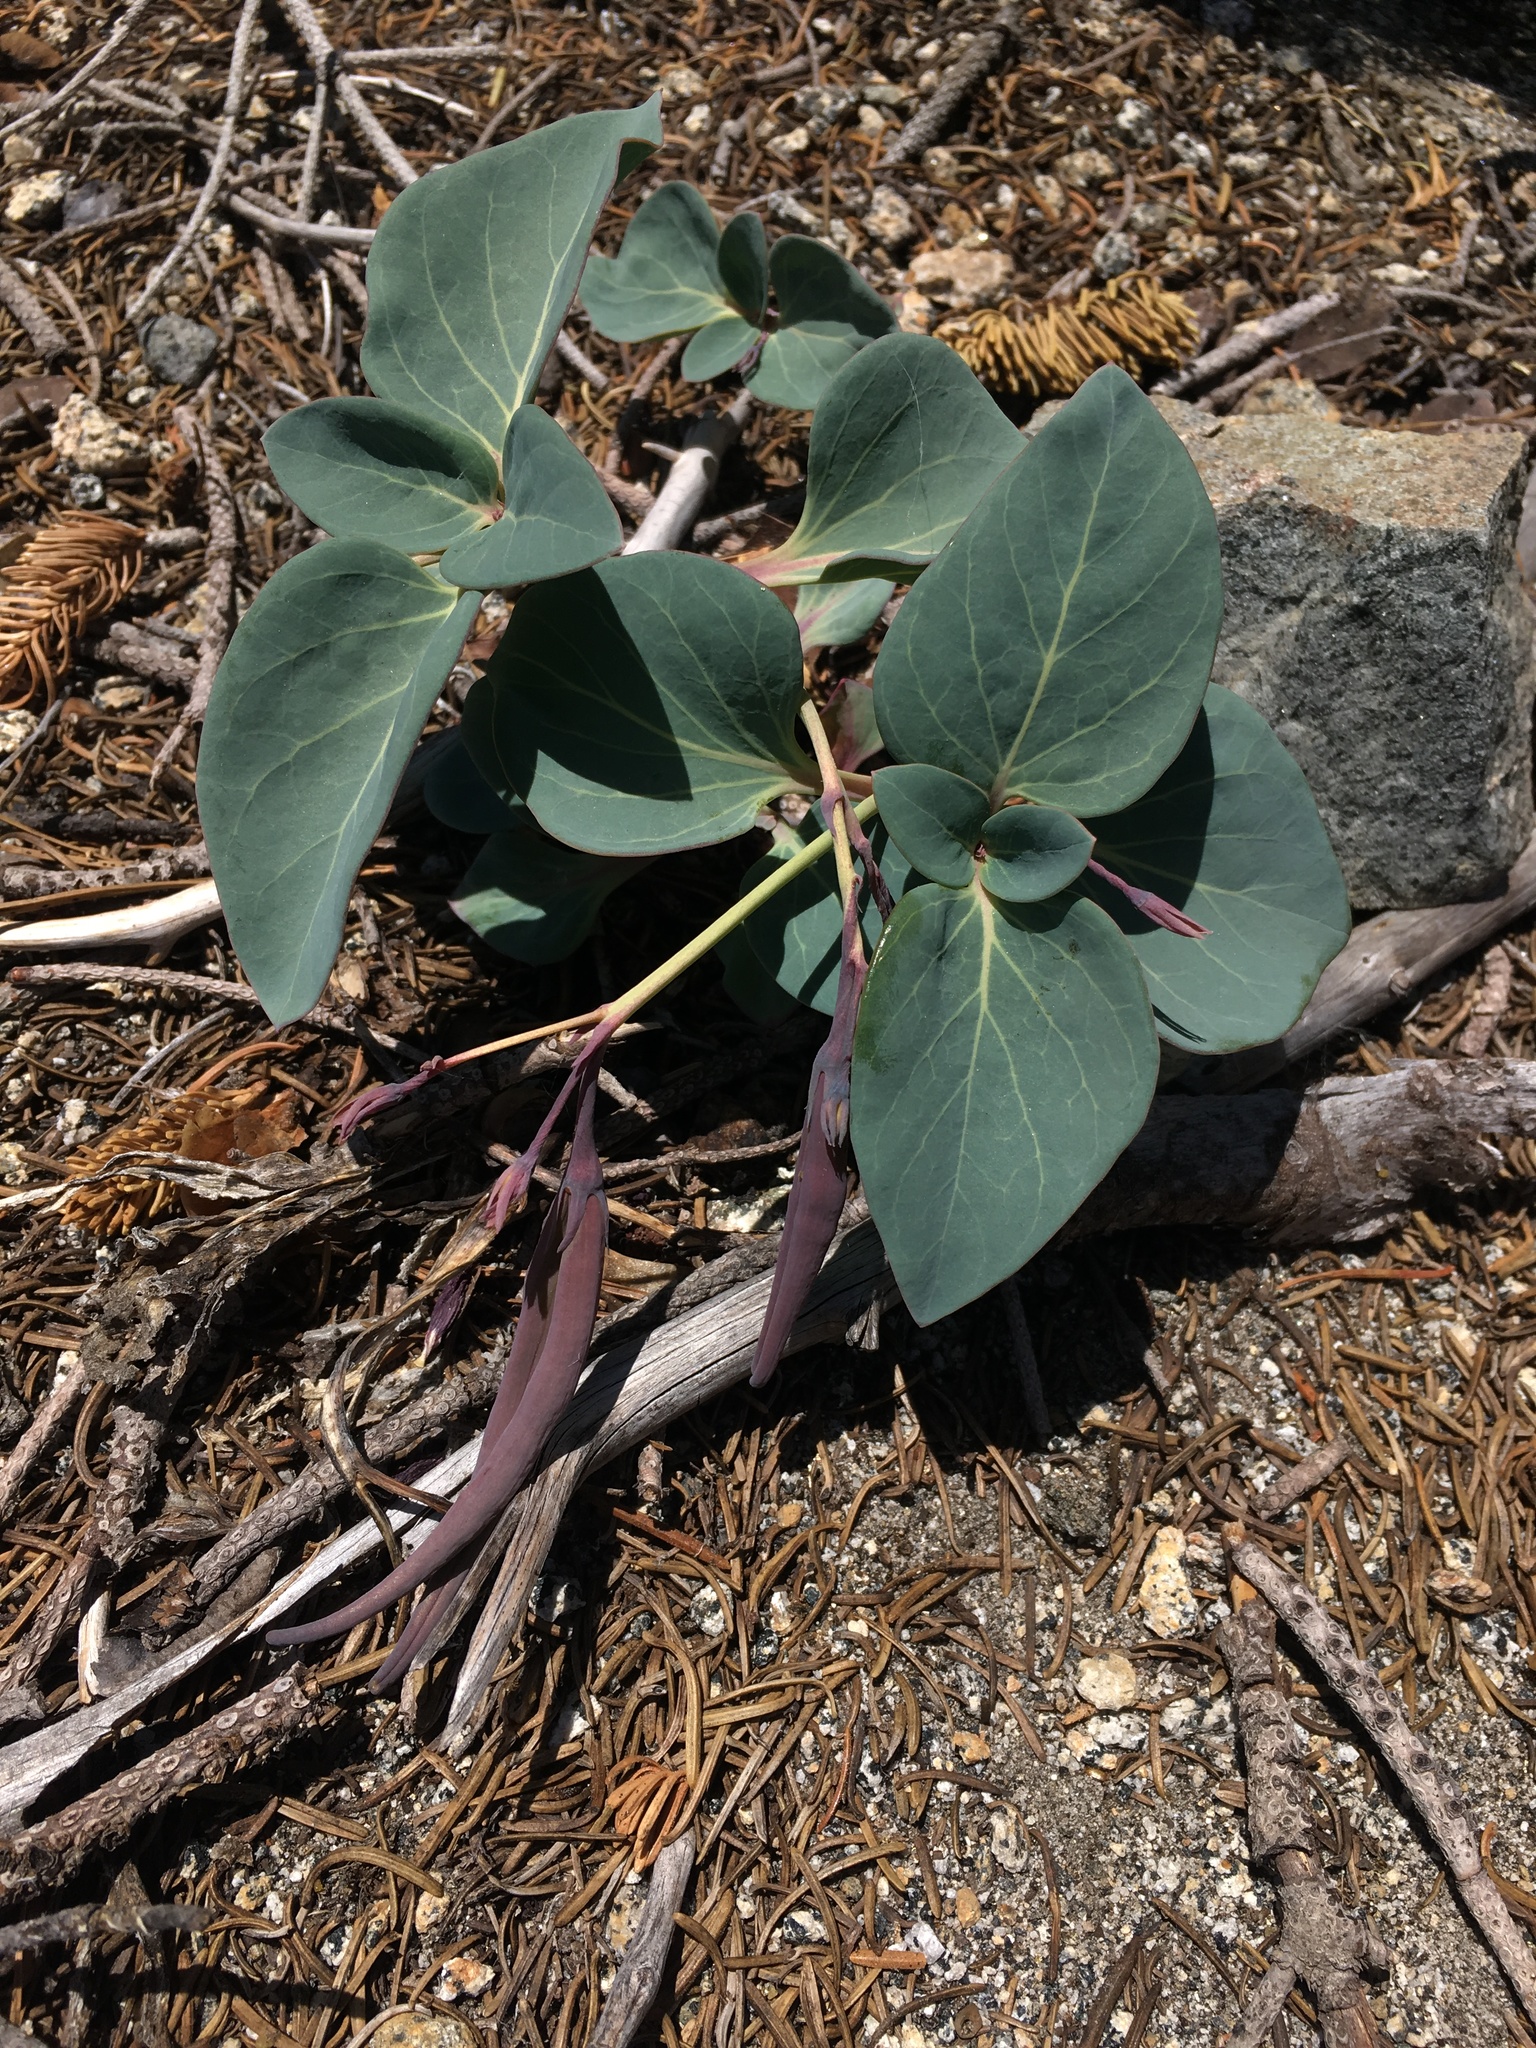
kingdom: Plantae
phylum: Tracheophyta
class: Magnoliopsida
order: Gentianales
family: Apocynaceae
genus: Cycladenia
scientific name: Cycladenia humilis
